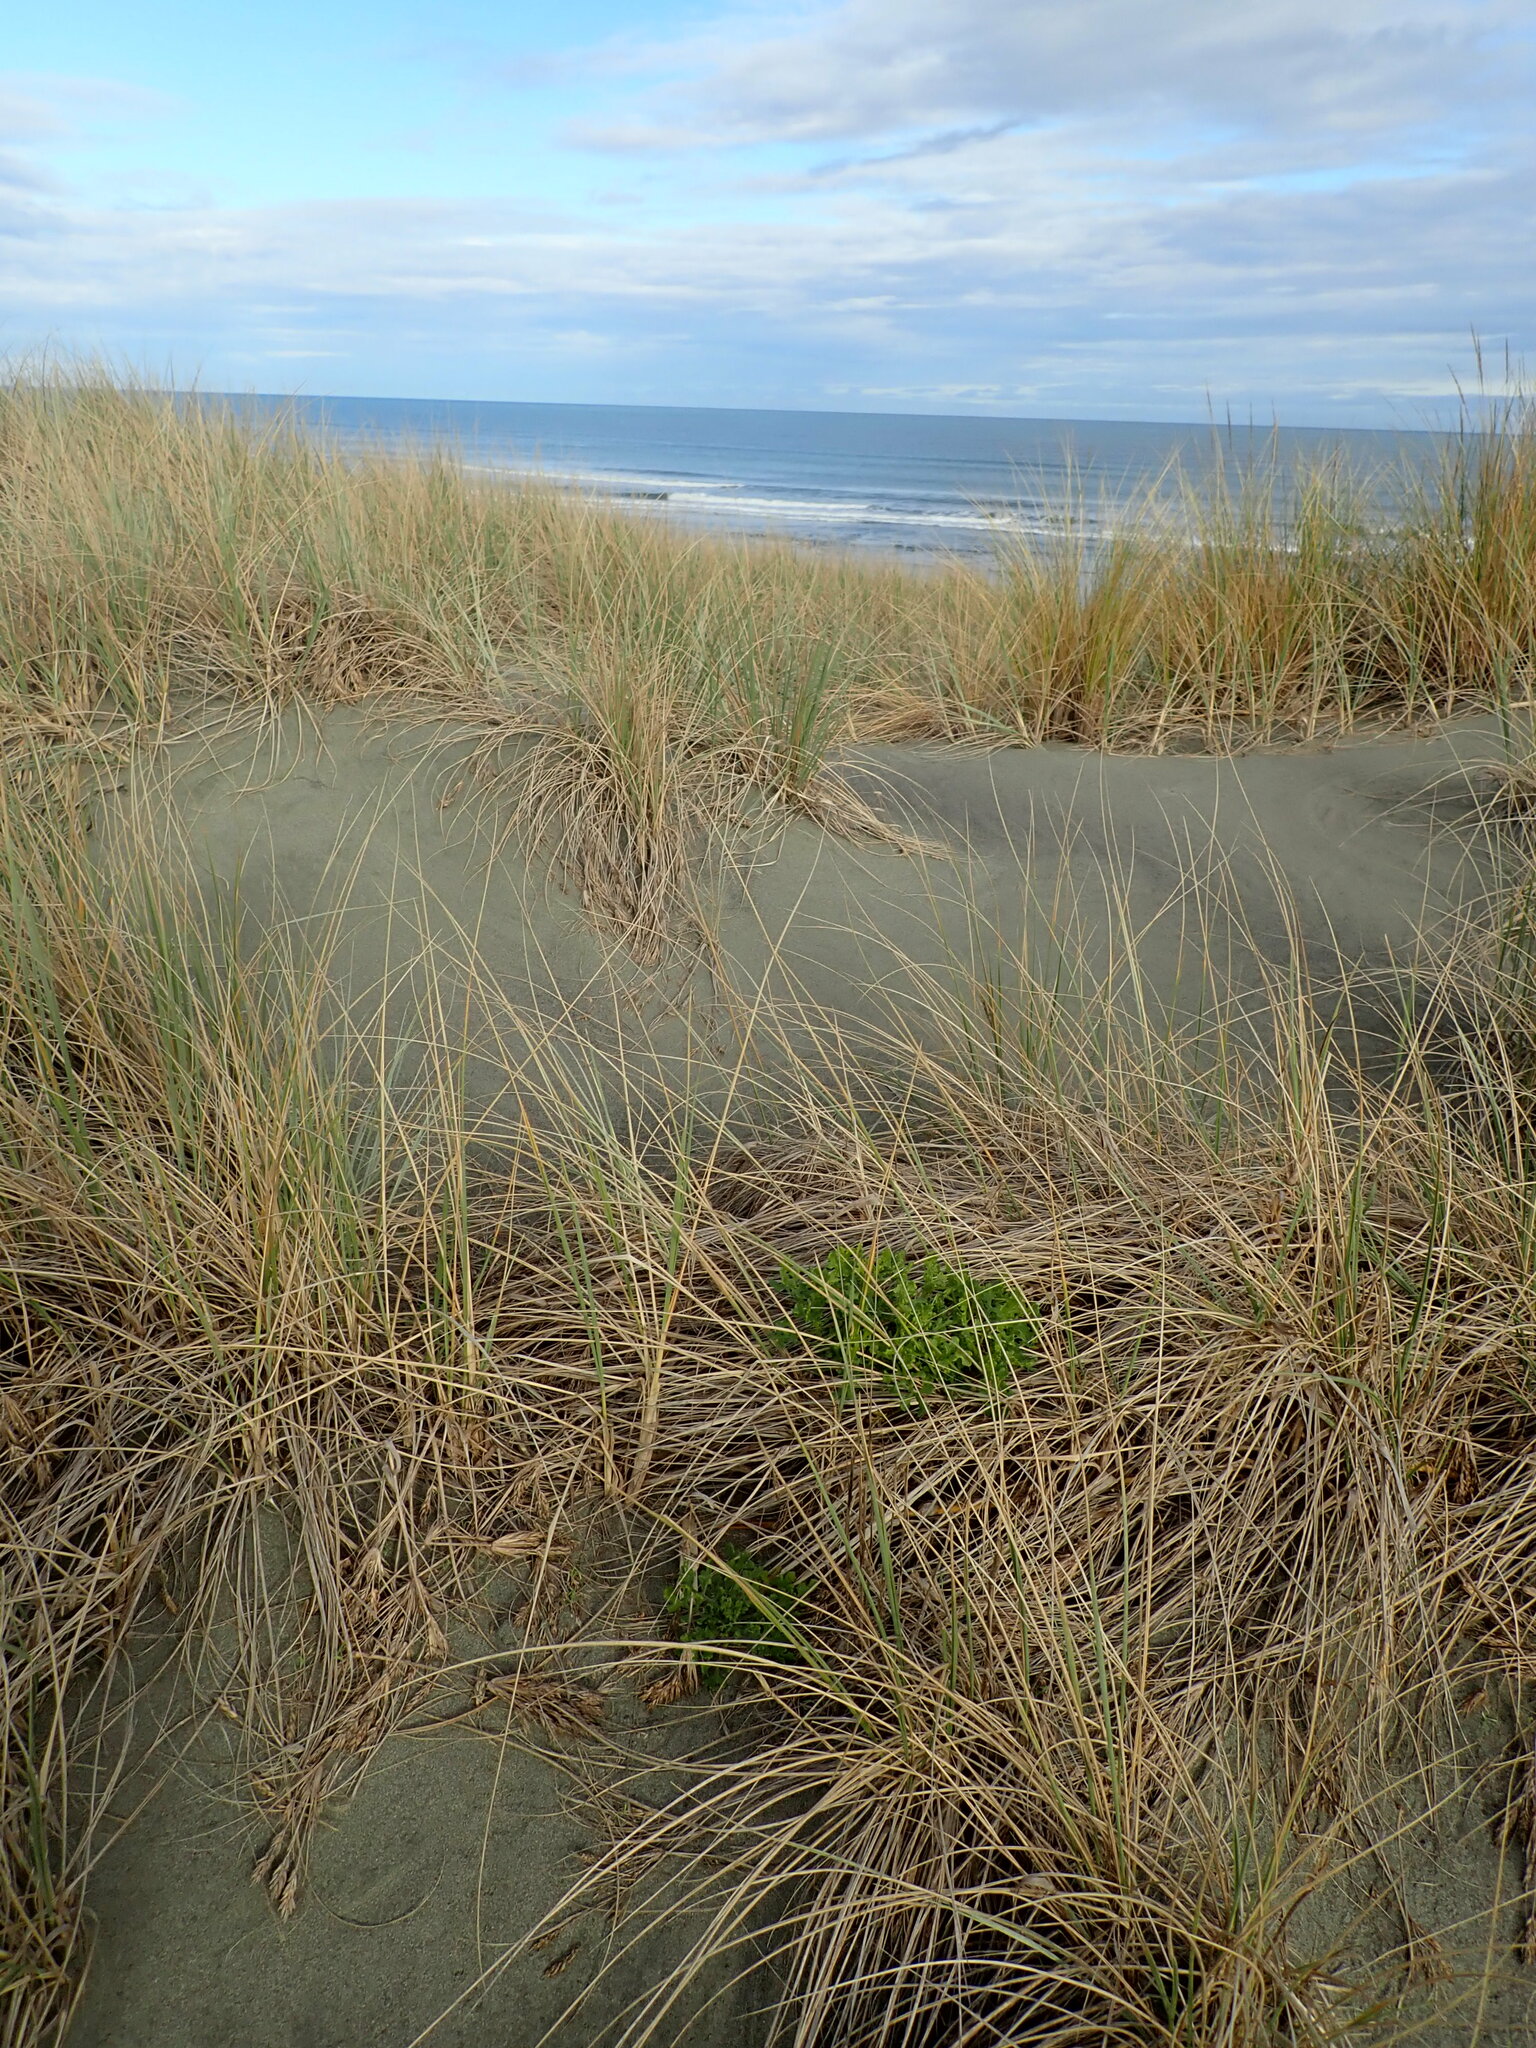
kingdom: Plantae
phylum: Tracheophyta
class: Magnoliopsida
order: Asterales
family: Asteraceae
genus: Senecio
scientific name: Senecio elegans
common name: Purple groundsel
